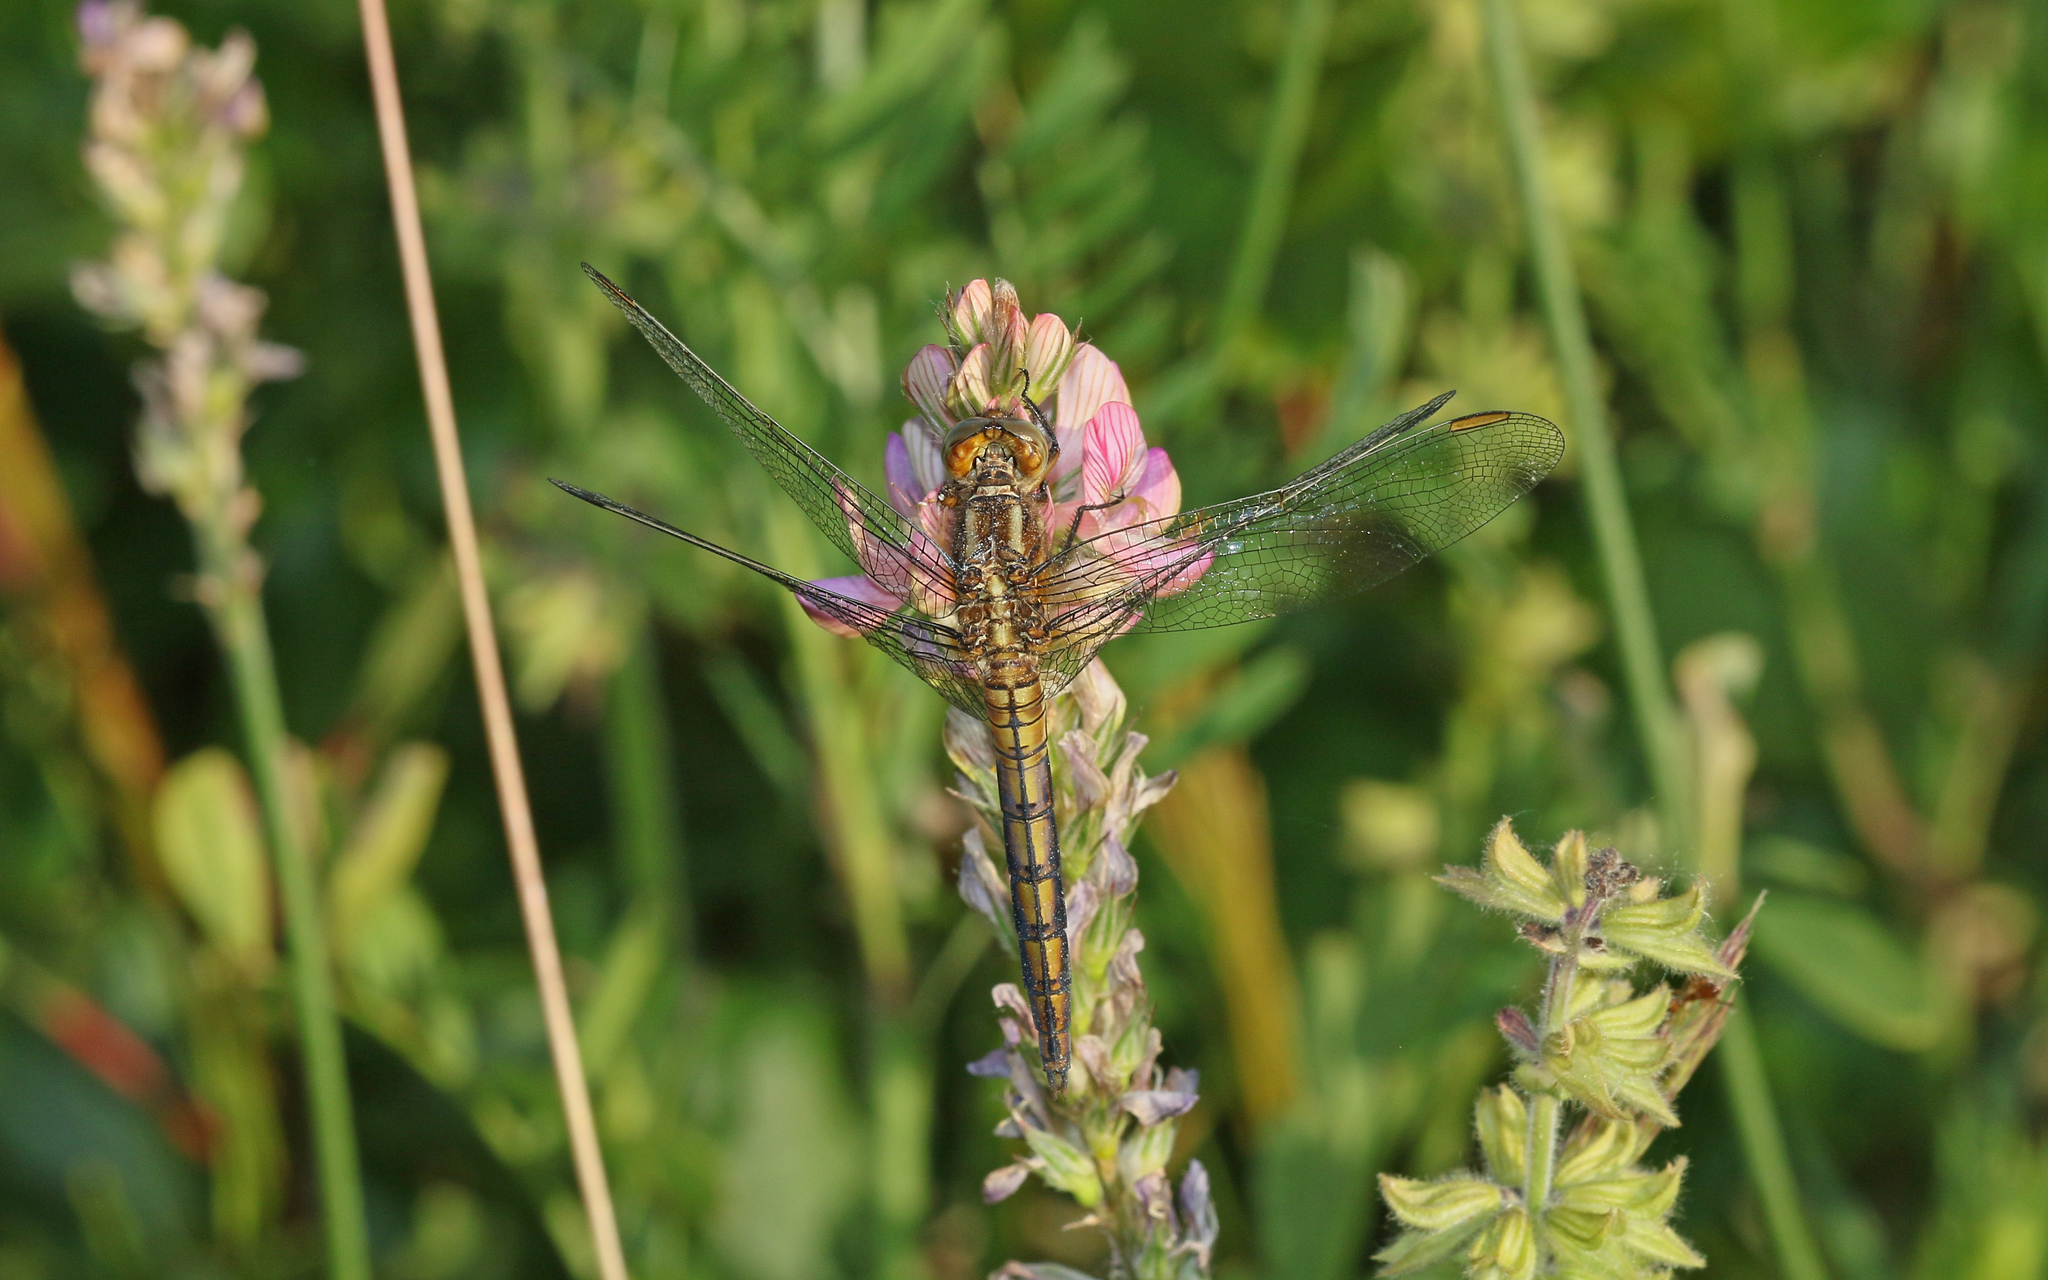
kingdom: Animalia
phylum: Arthropoda
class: Insecta
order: Odonata
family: Libellulidae
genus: Orthetrum
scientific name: Orthetrum cancellatum
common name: Black-tailed skimmer
